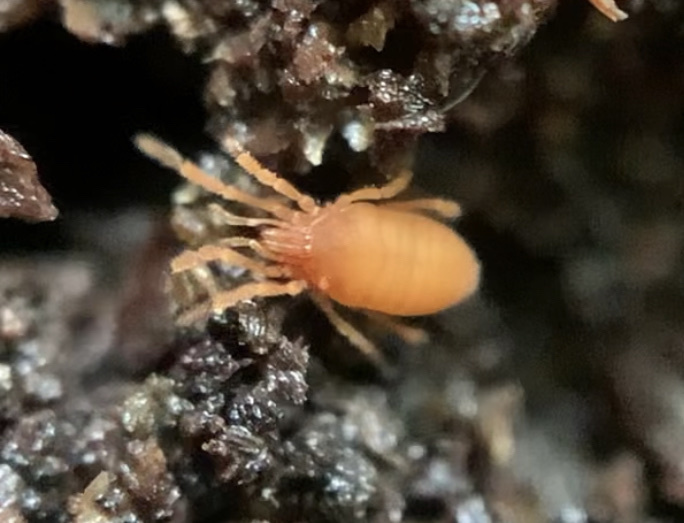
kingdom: Animalia
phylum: Arthropoda
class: Arachnida
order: Opiliones
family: Sironidae
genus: Siro
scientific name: Siro rubens
